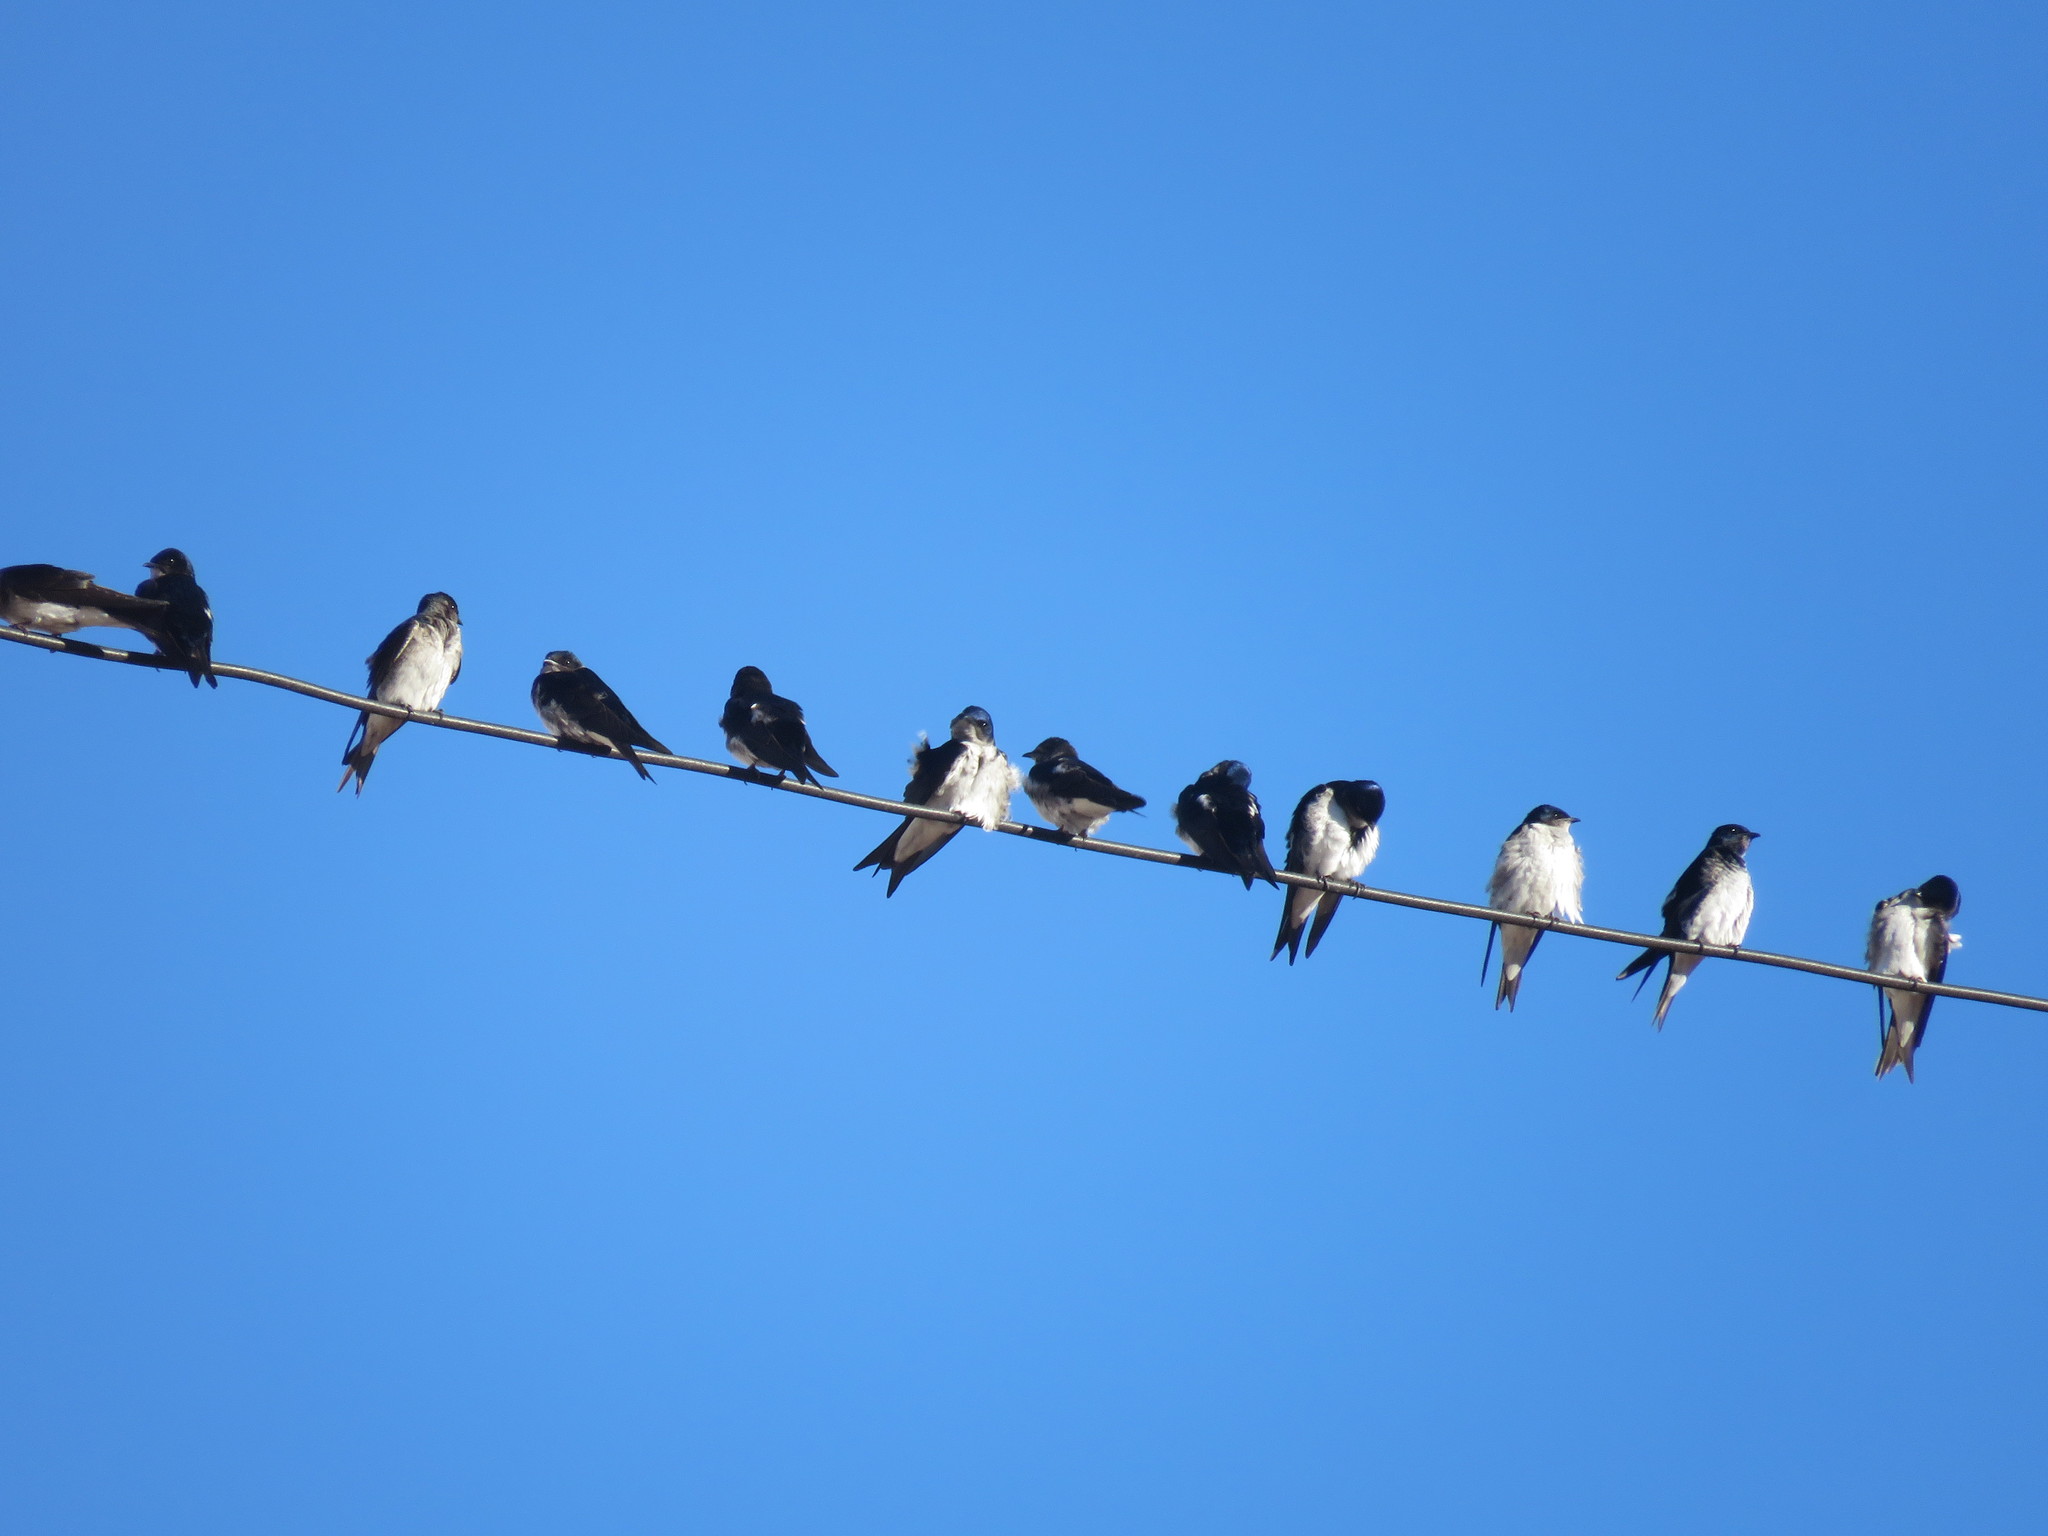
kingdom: Animalia
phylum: Chordata
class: Aves
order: Passeriformes
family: Hirundinidae
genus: Progne
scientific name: Progne chalybea
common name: Grey-breasted martin
